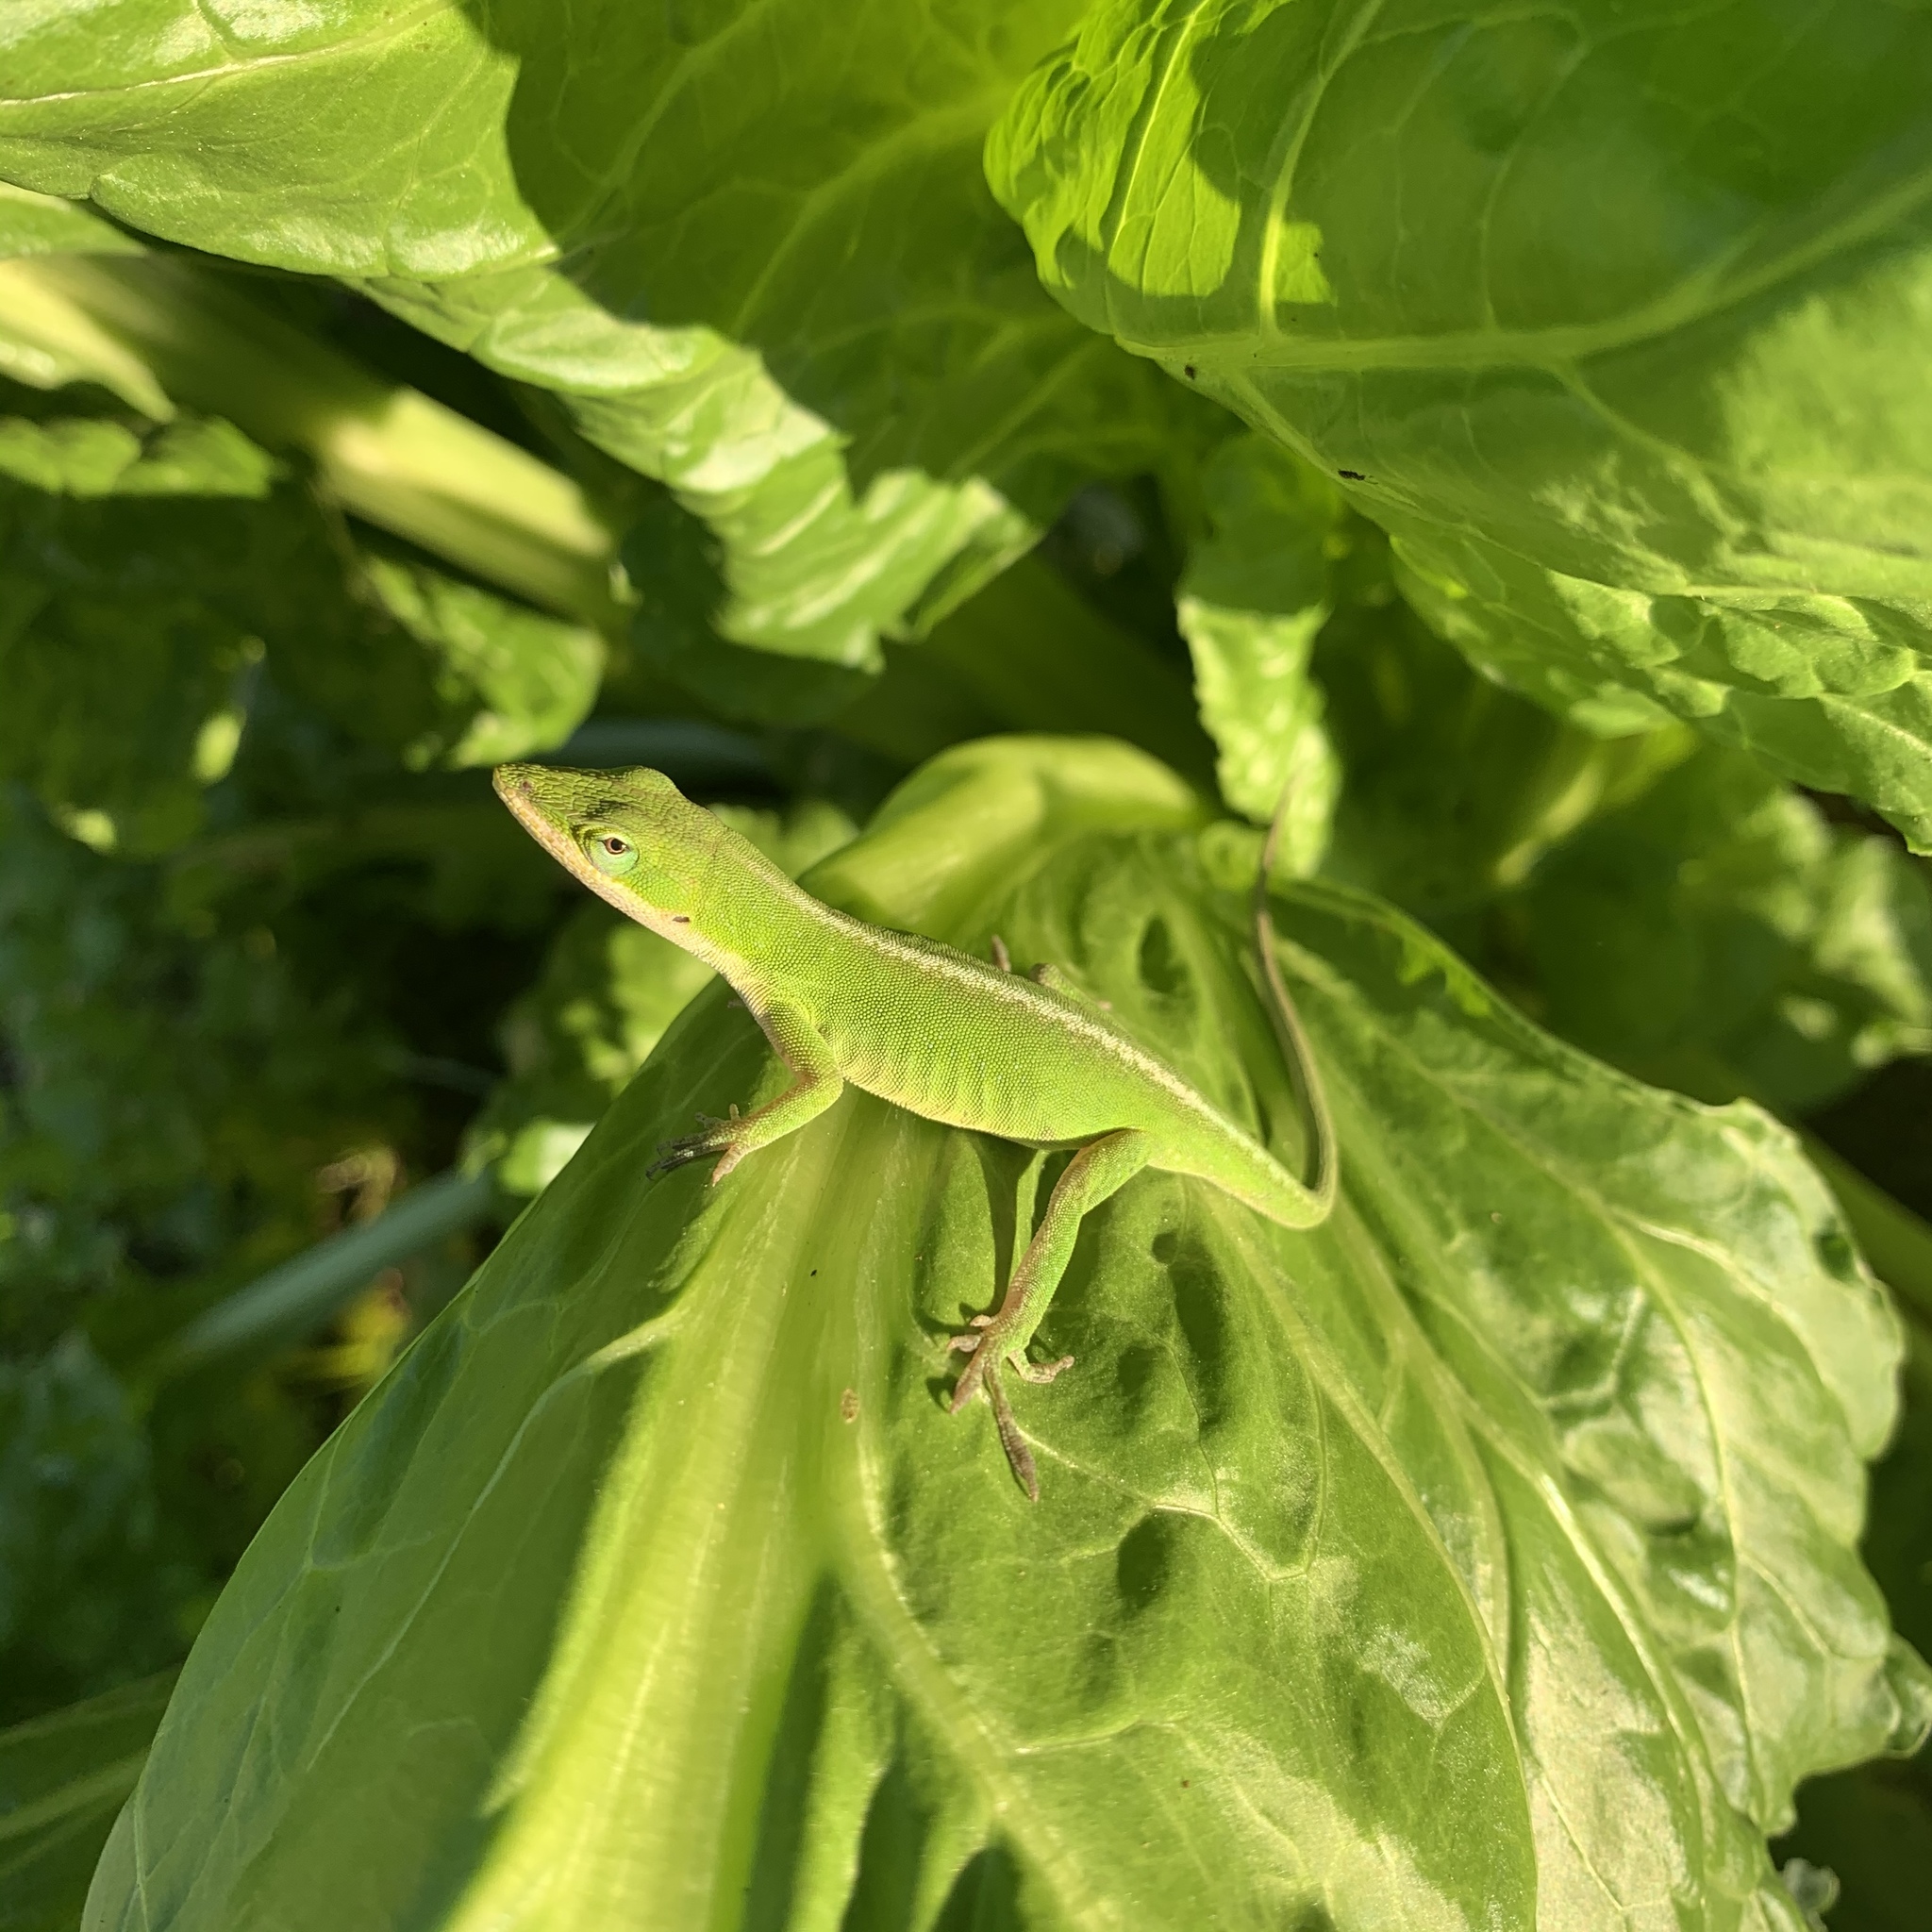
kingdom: Animalia
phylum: Chordata
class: Squamata
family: Dactyloidae
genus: Anolis
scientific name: Anolis carolinensis
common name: Green anole
